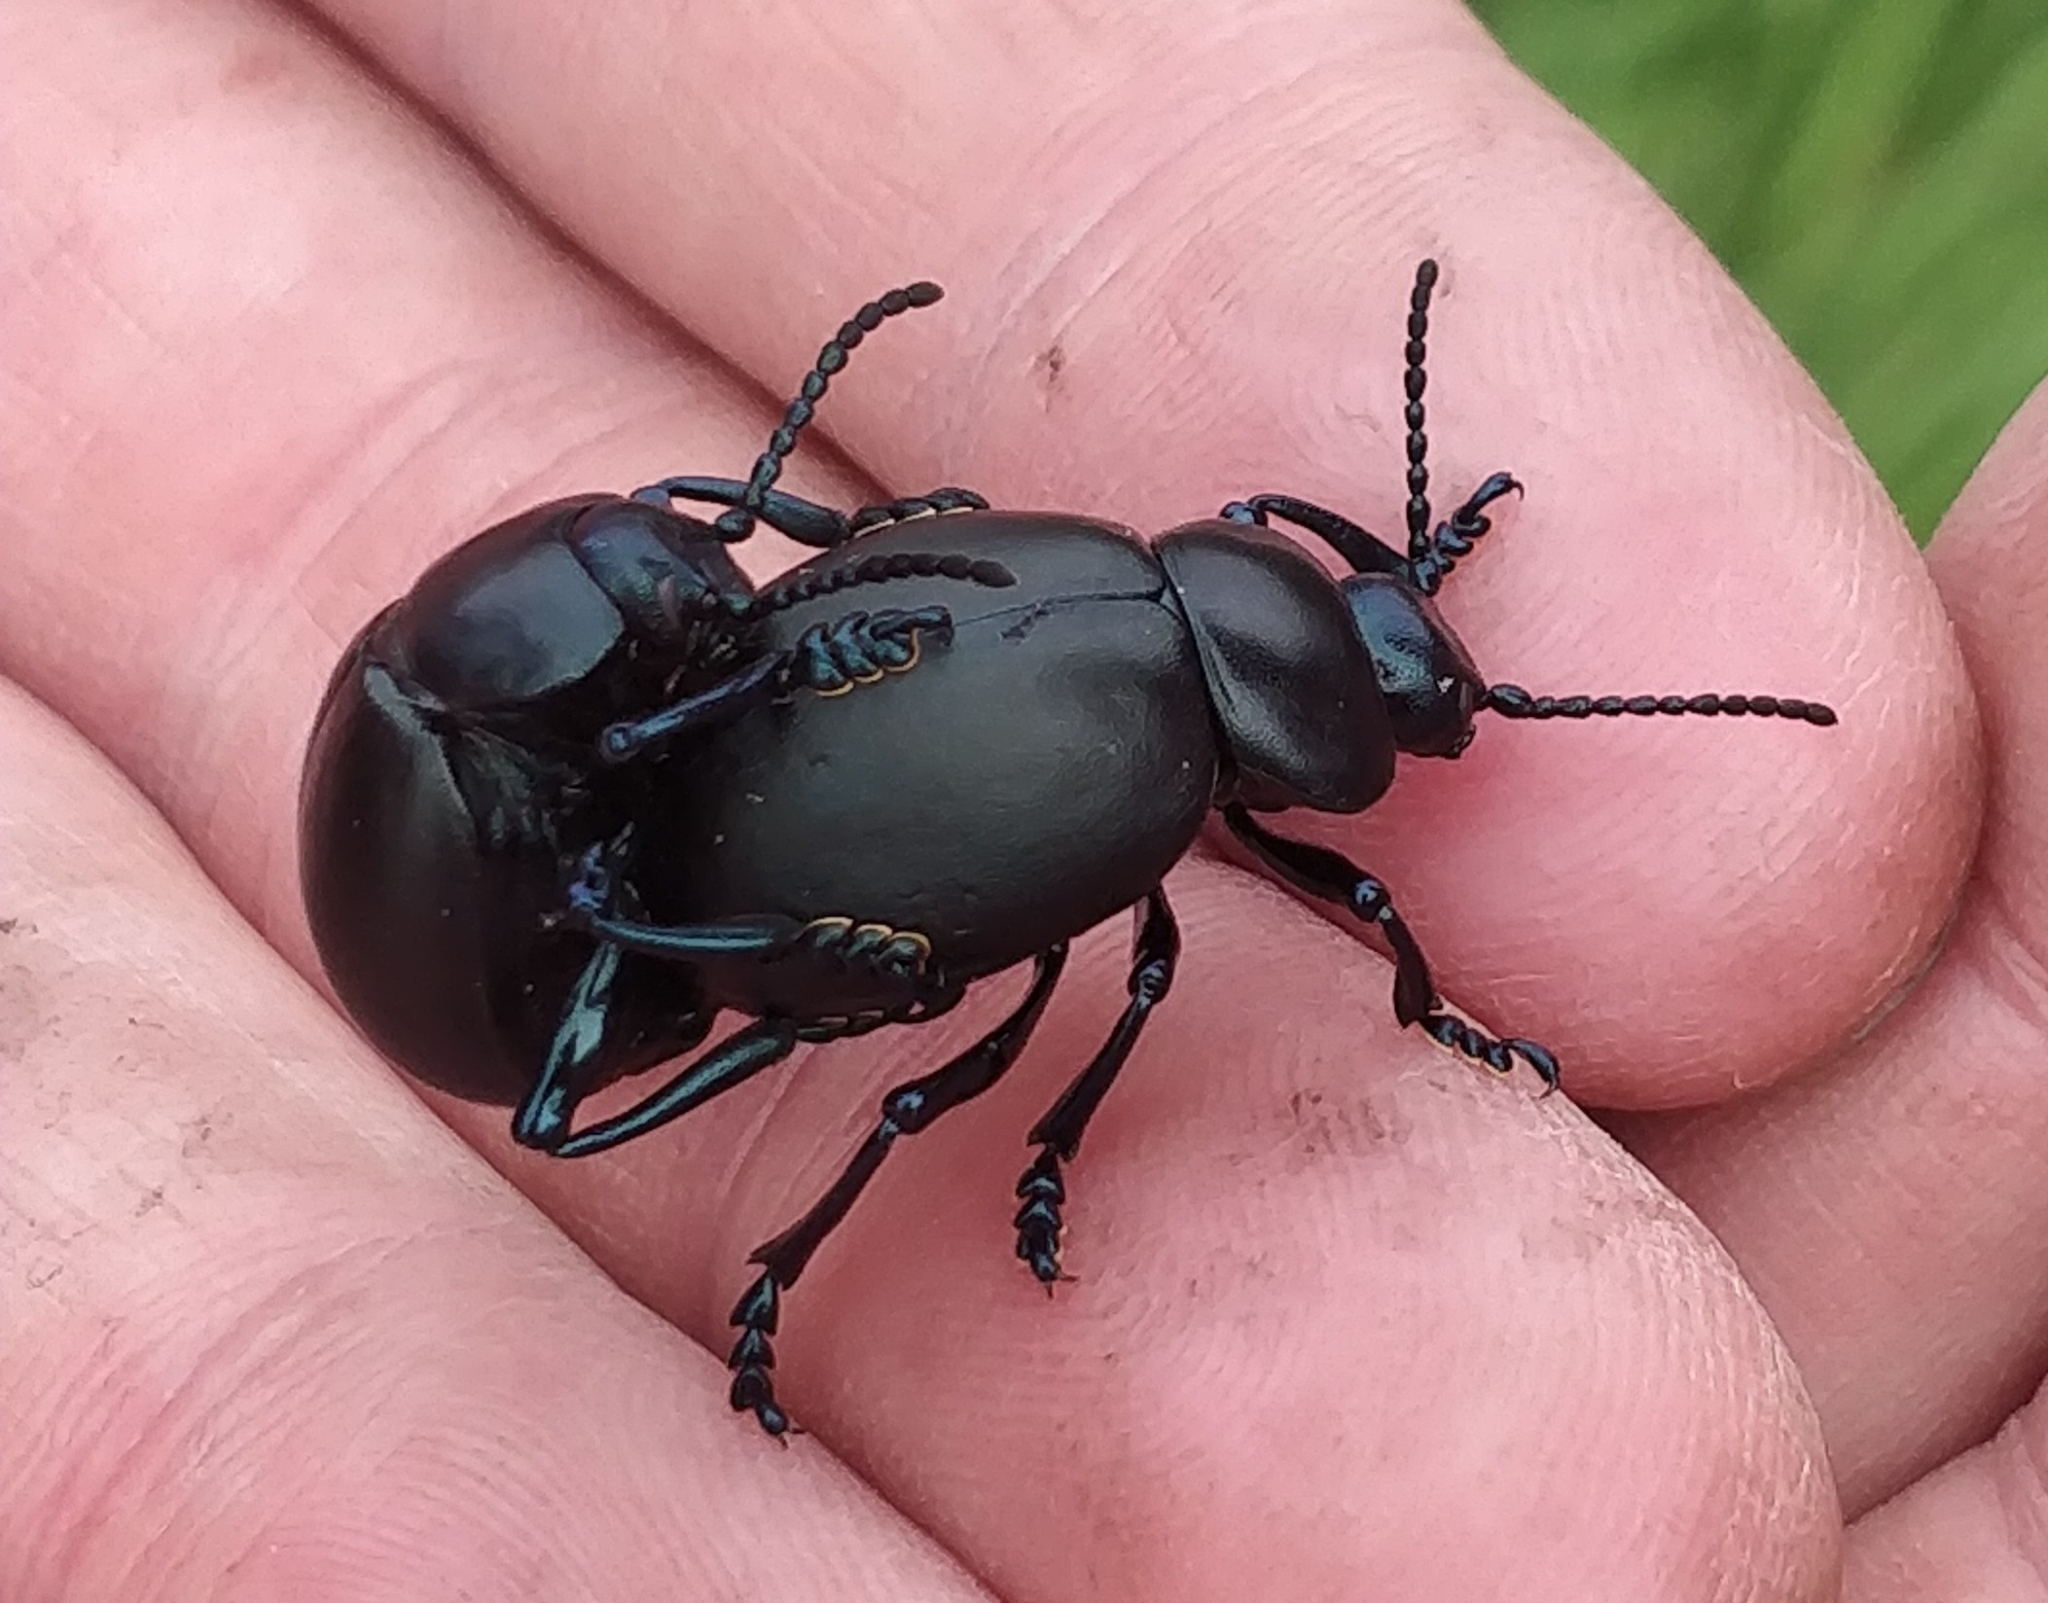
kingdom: Animalia
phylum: Arthropoda
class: Insecta
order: Coleoptera
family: Chrysomelidae
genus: Timarcha
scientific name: Timarcha tenebricosa
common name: Bloody-nosed beetle
